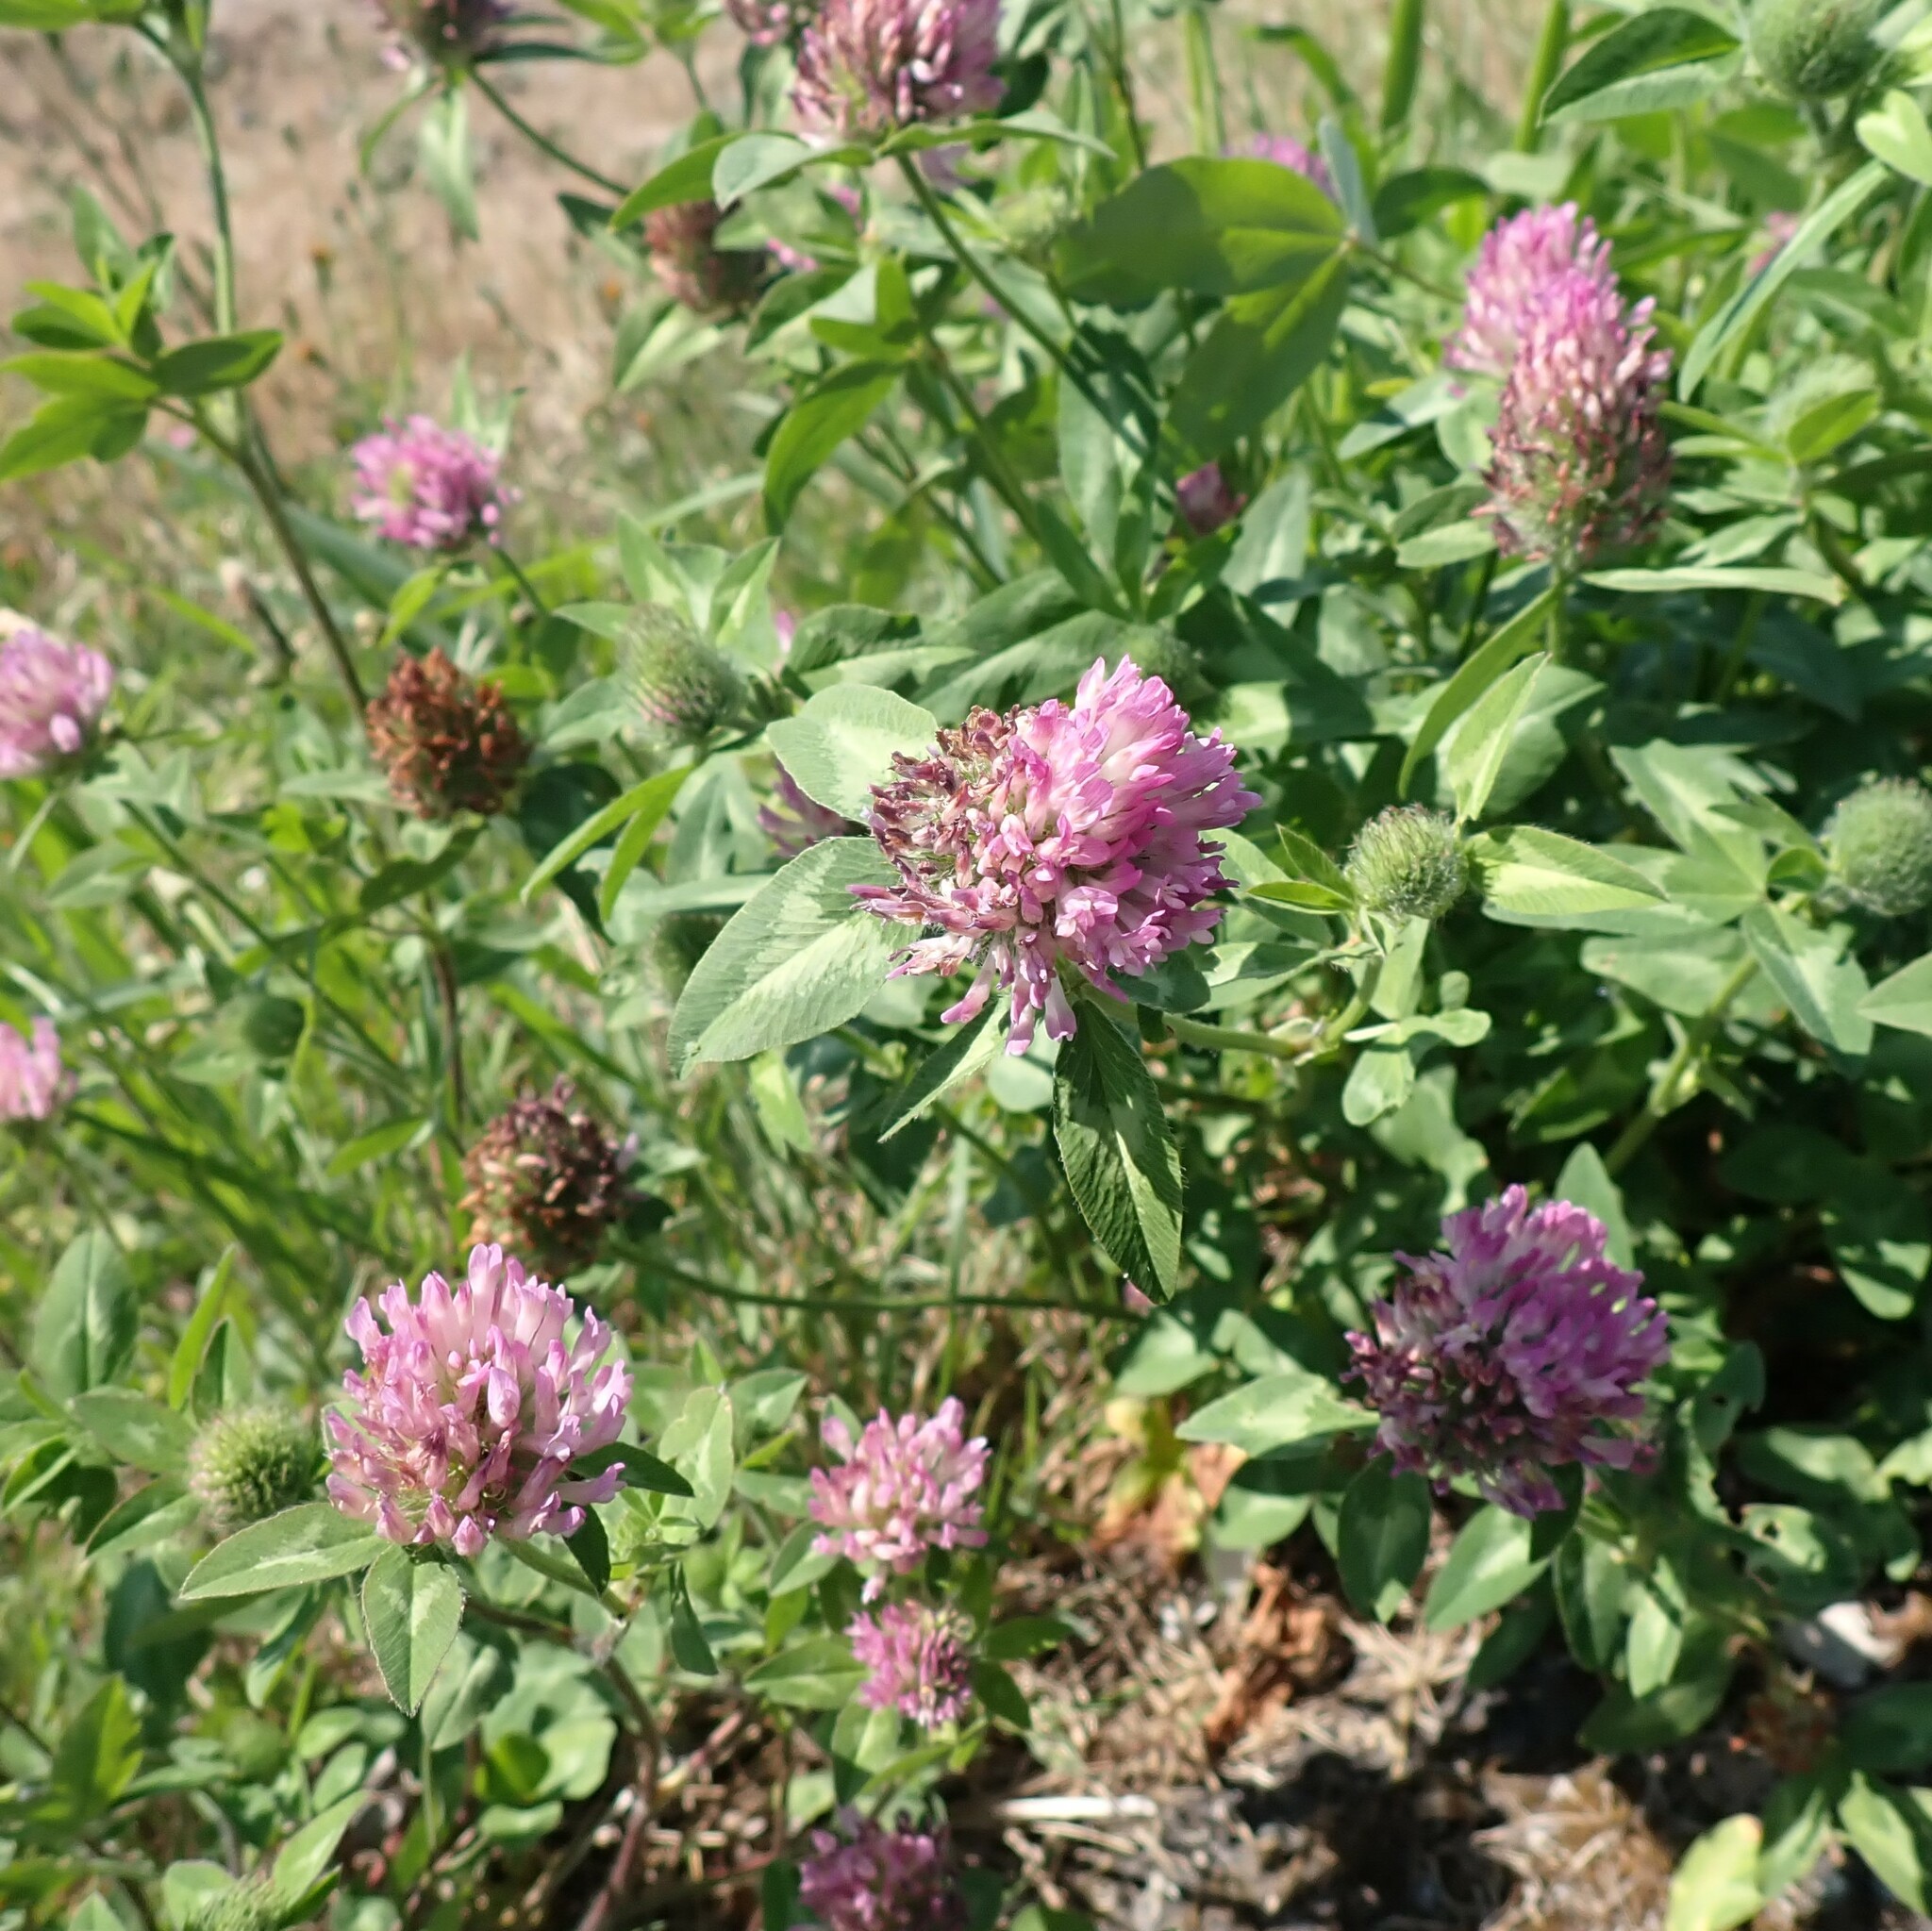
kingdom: Plantae
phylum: Tracheophyta
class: Magnoliopsida
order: Fabales
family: Fabaceae
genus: Trifolium
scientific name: Trifolium pratense
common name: Red clover
